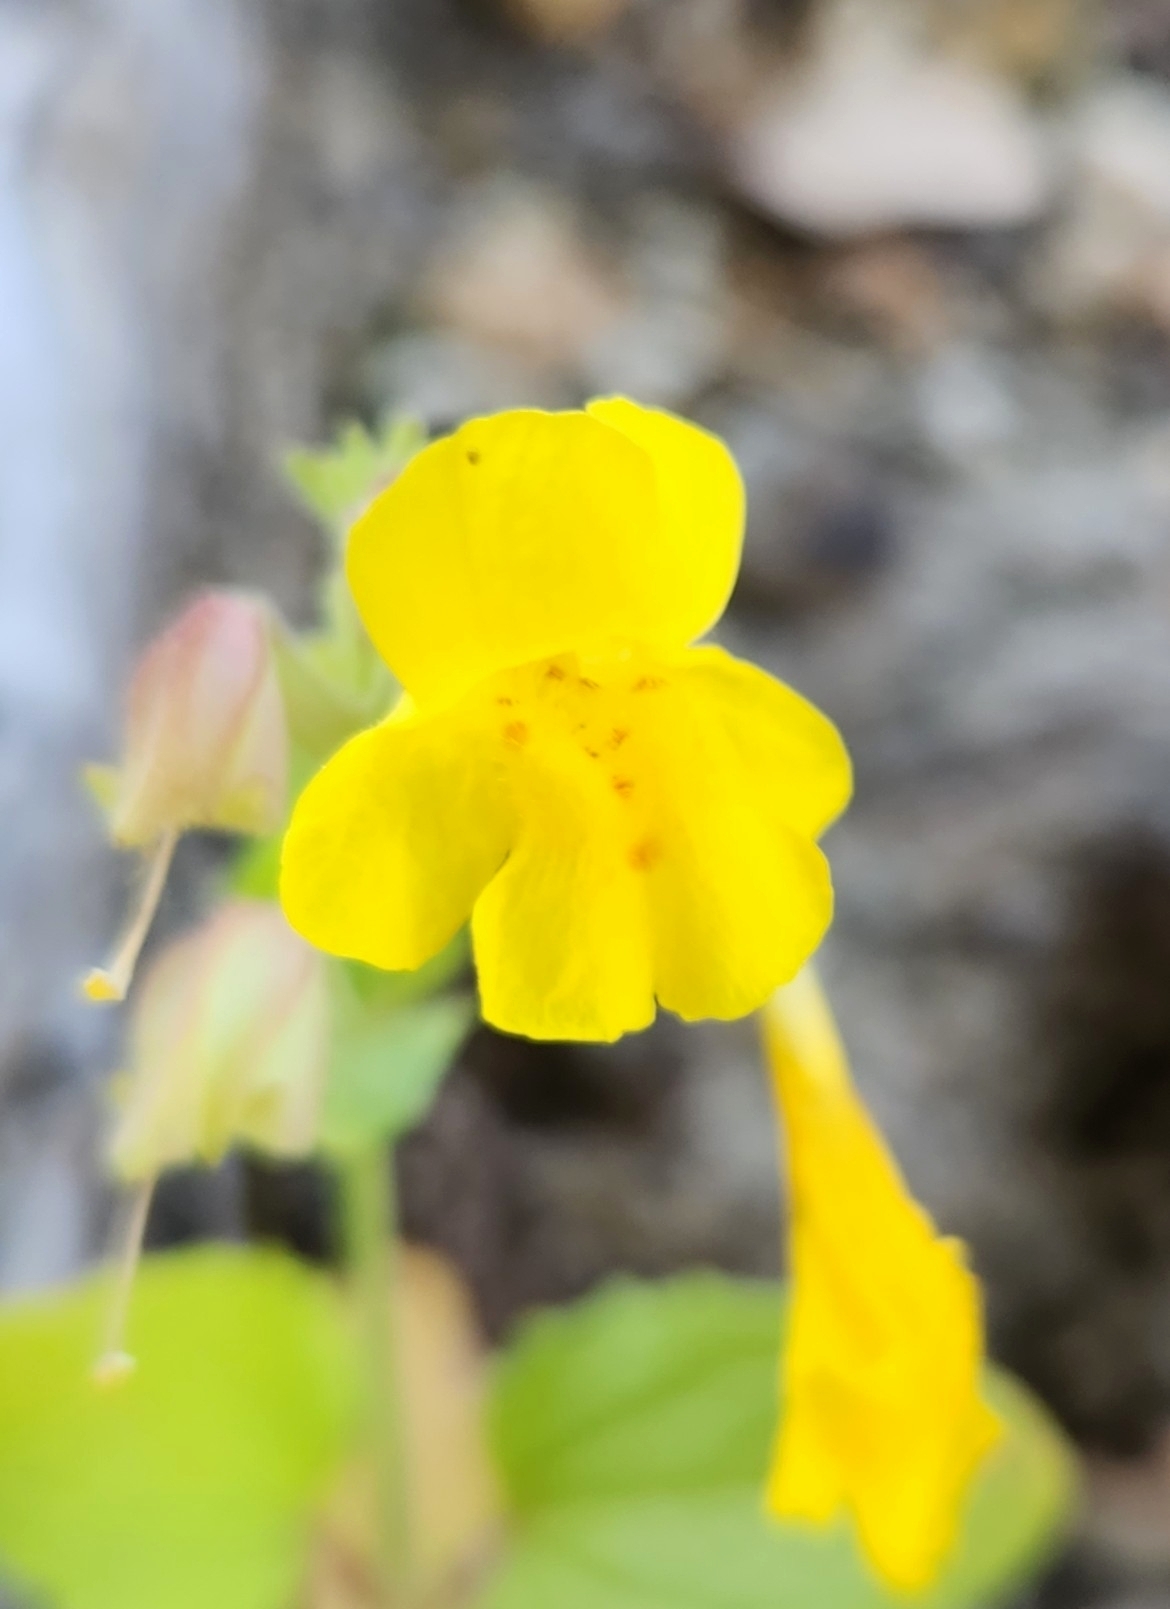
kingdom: Plantae
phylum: Tracheophyta
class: Magnoliopsida
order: Lamiales
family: Phrymaceae
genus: Erythranthe
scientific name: Erythranthe guttata
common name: Monkeyflower
